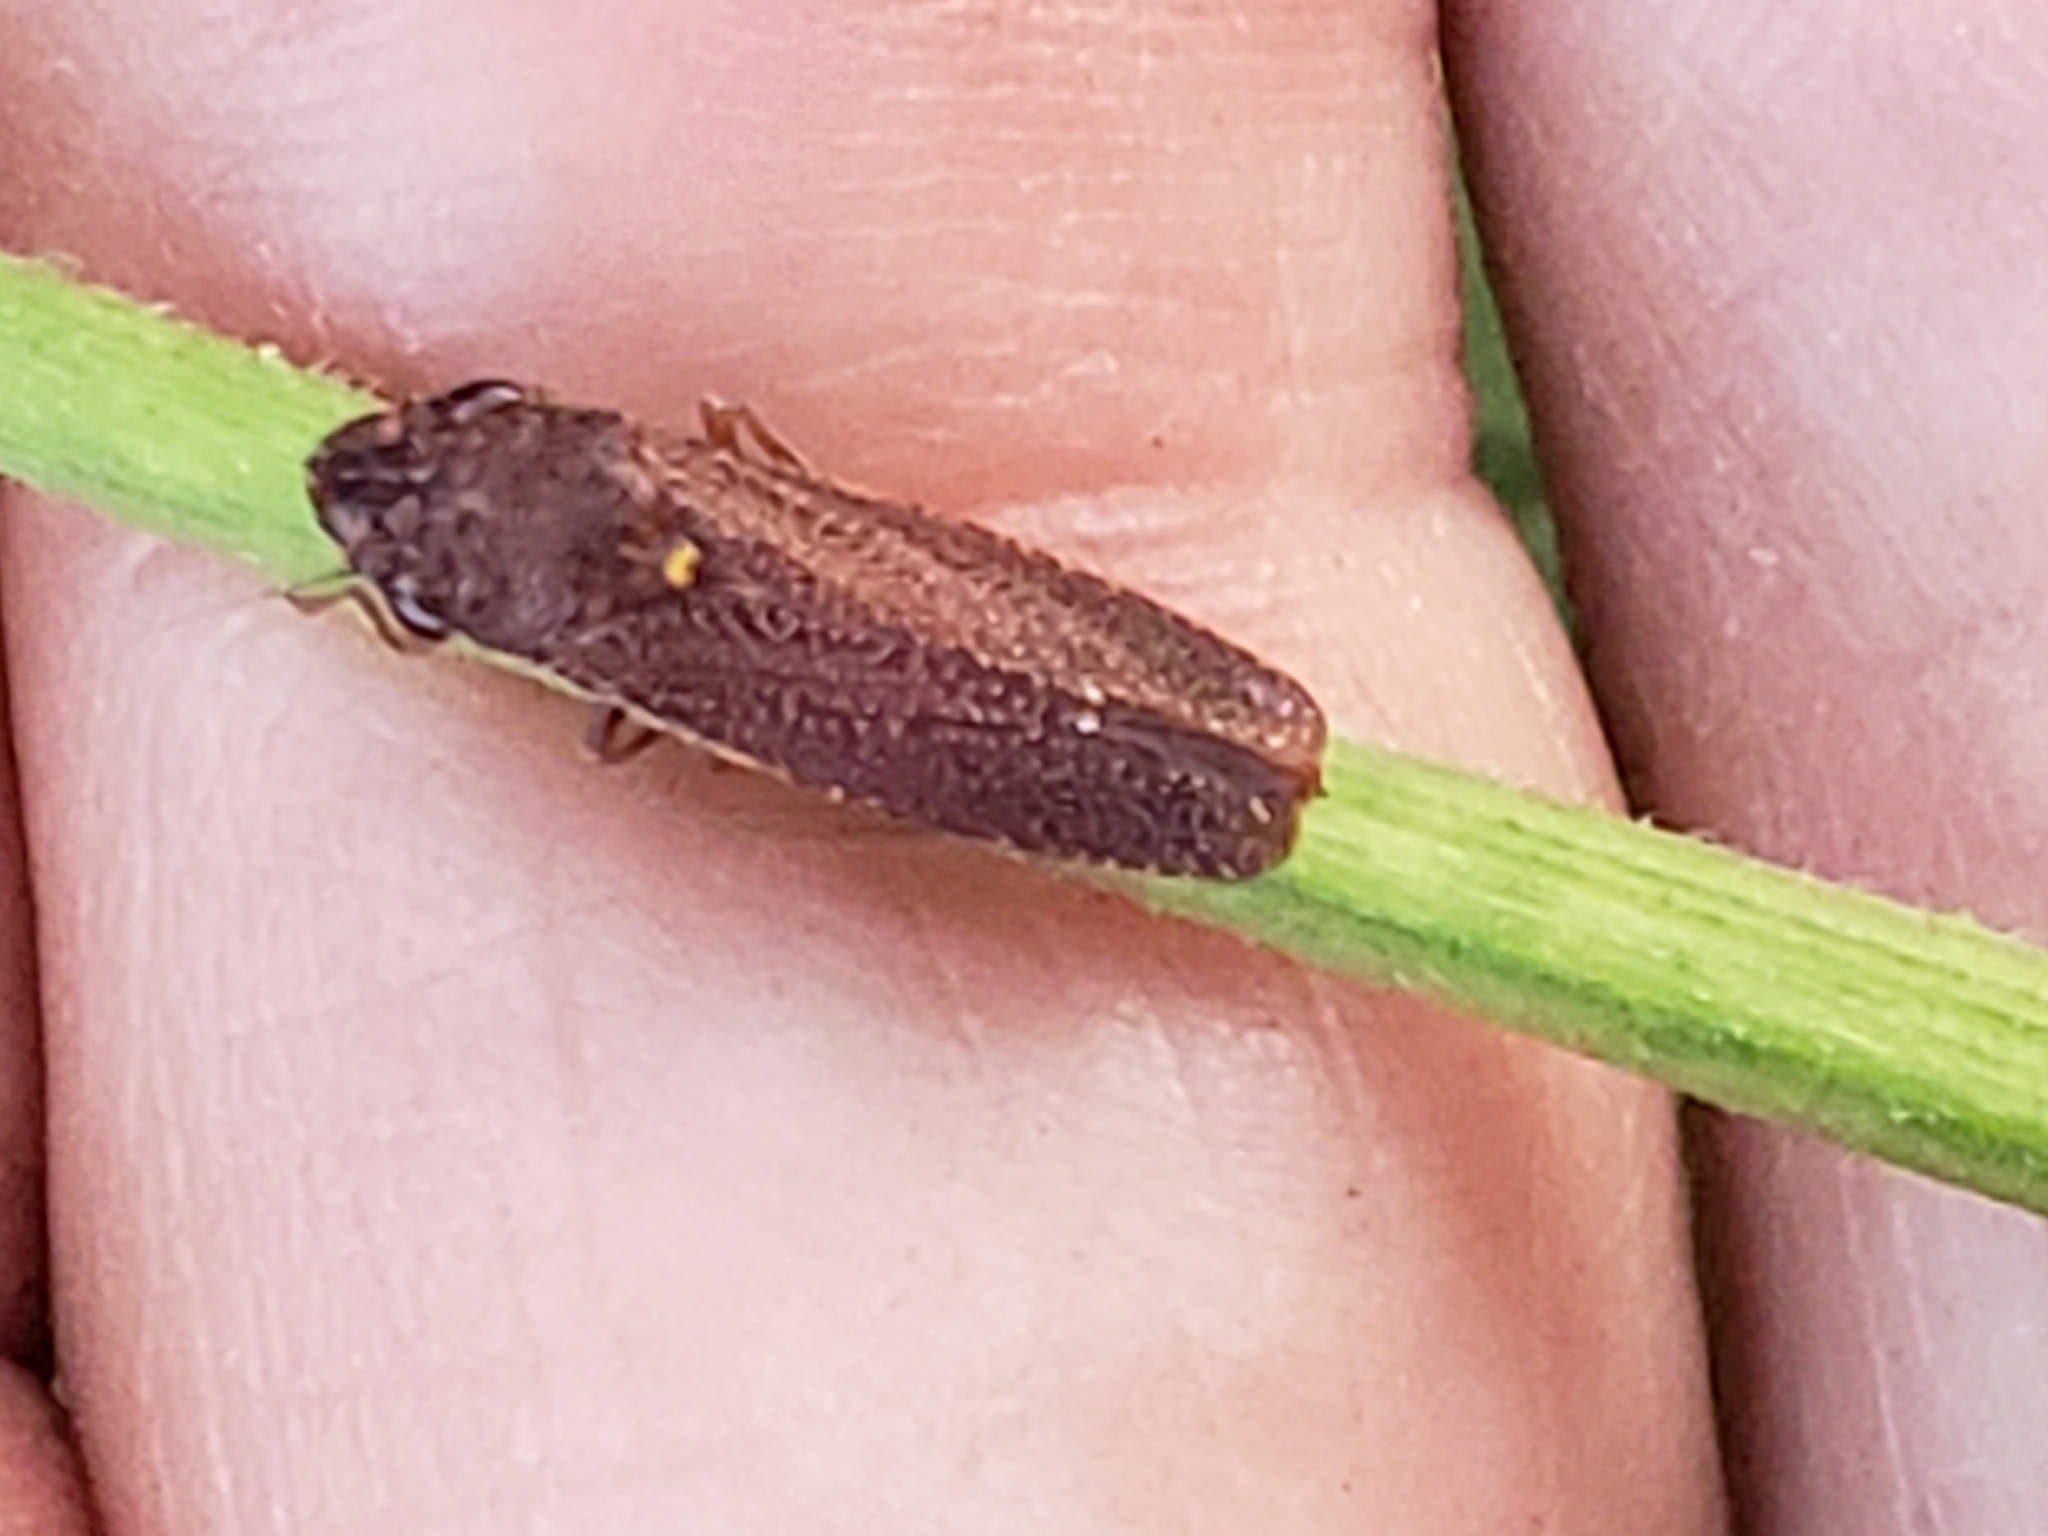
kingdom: Animalia
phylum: Arthropoda
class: Insecta
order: Hemiptera
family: Cicadellidae
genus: Paraulacizes
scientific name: Paraulacizes irrorata
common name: Speckled sharpshooter
